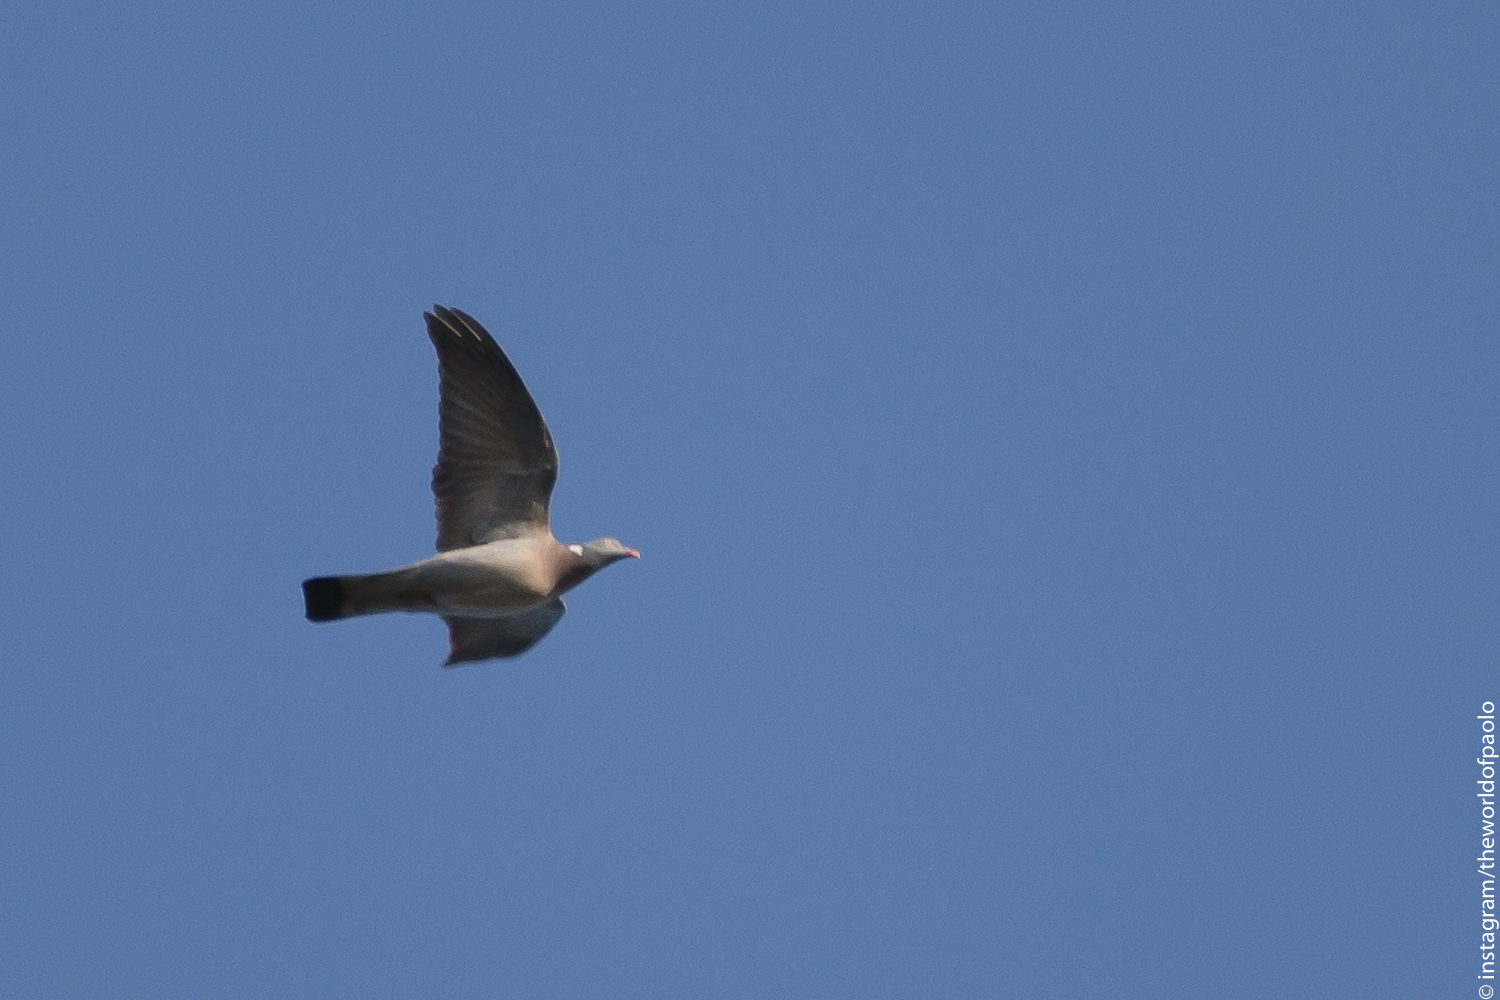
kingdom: Animalia
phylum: Chordata
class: Aves
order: Columbiformes
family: Columbidae
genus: Columba
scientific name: Columba palumbus
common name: Common wood pigeon
